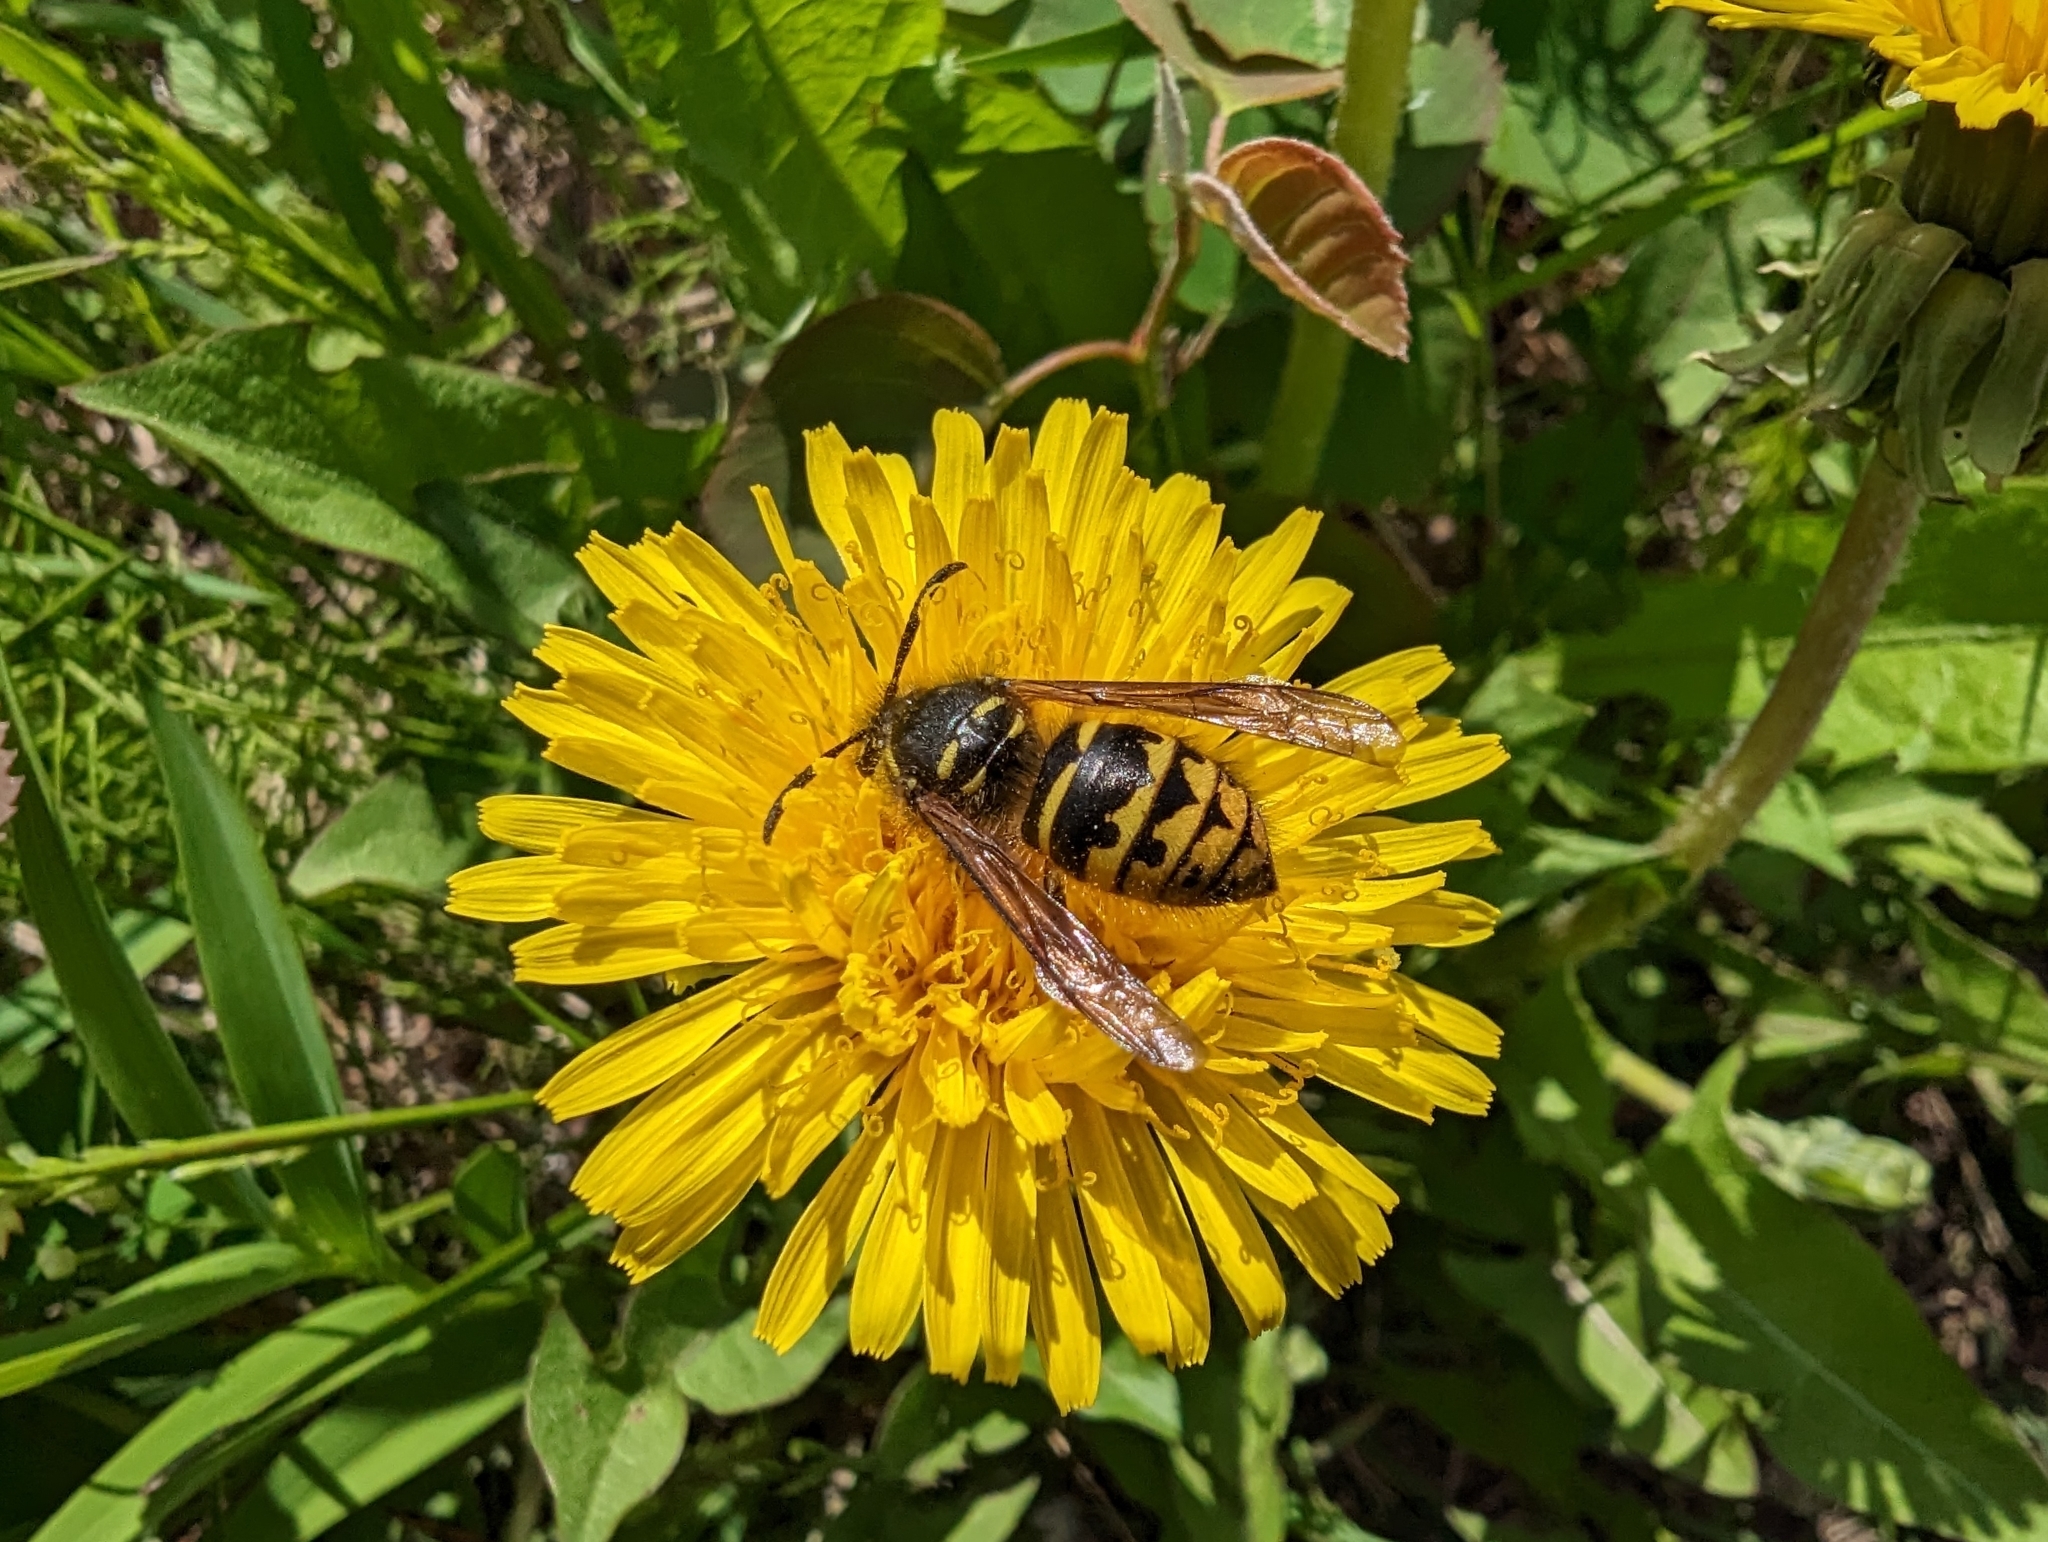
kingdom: Animalia
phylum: Arthropoda
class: Insecta
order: Hymenoptera
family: Vespidae
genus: Dolichovespula
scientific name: Dolichovespula arenaria
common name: Aerial yellowjacket
